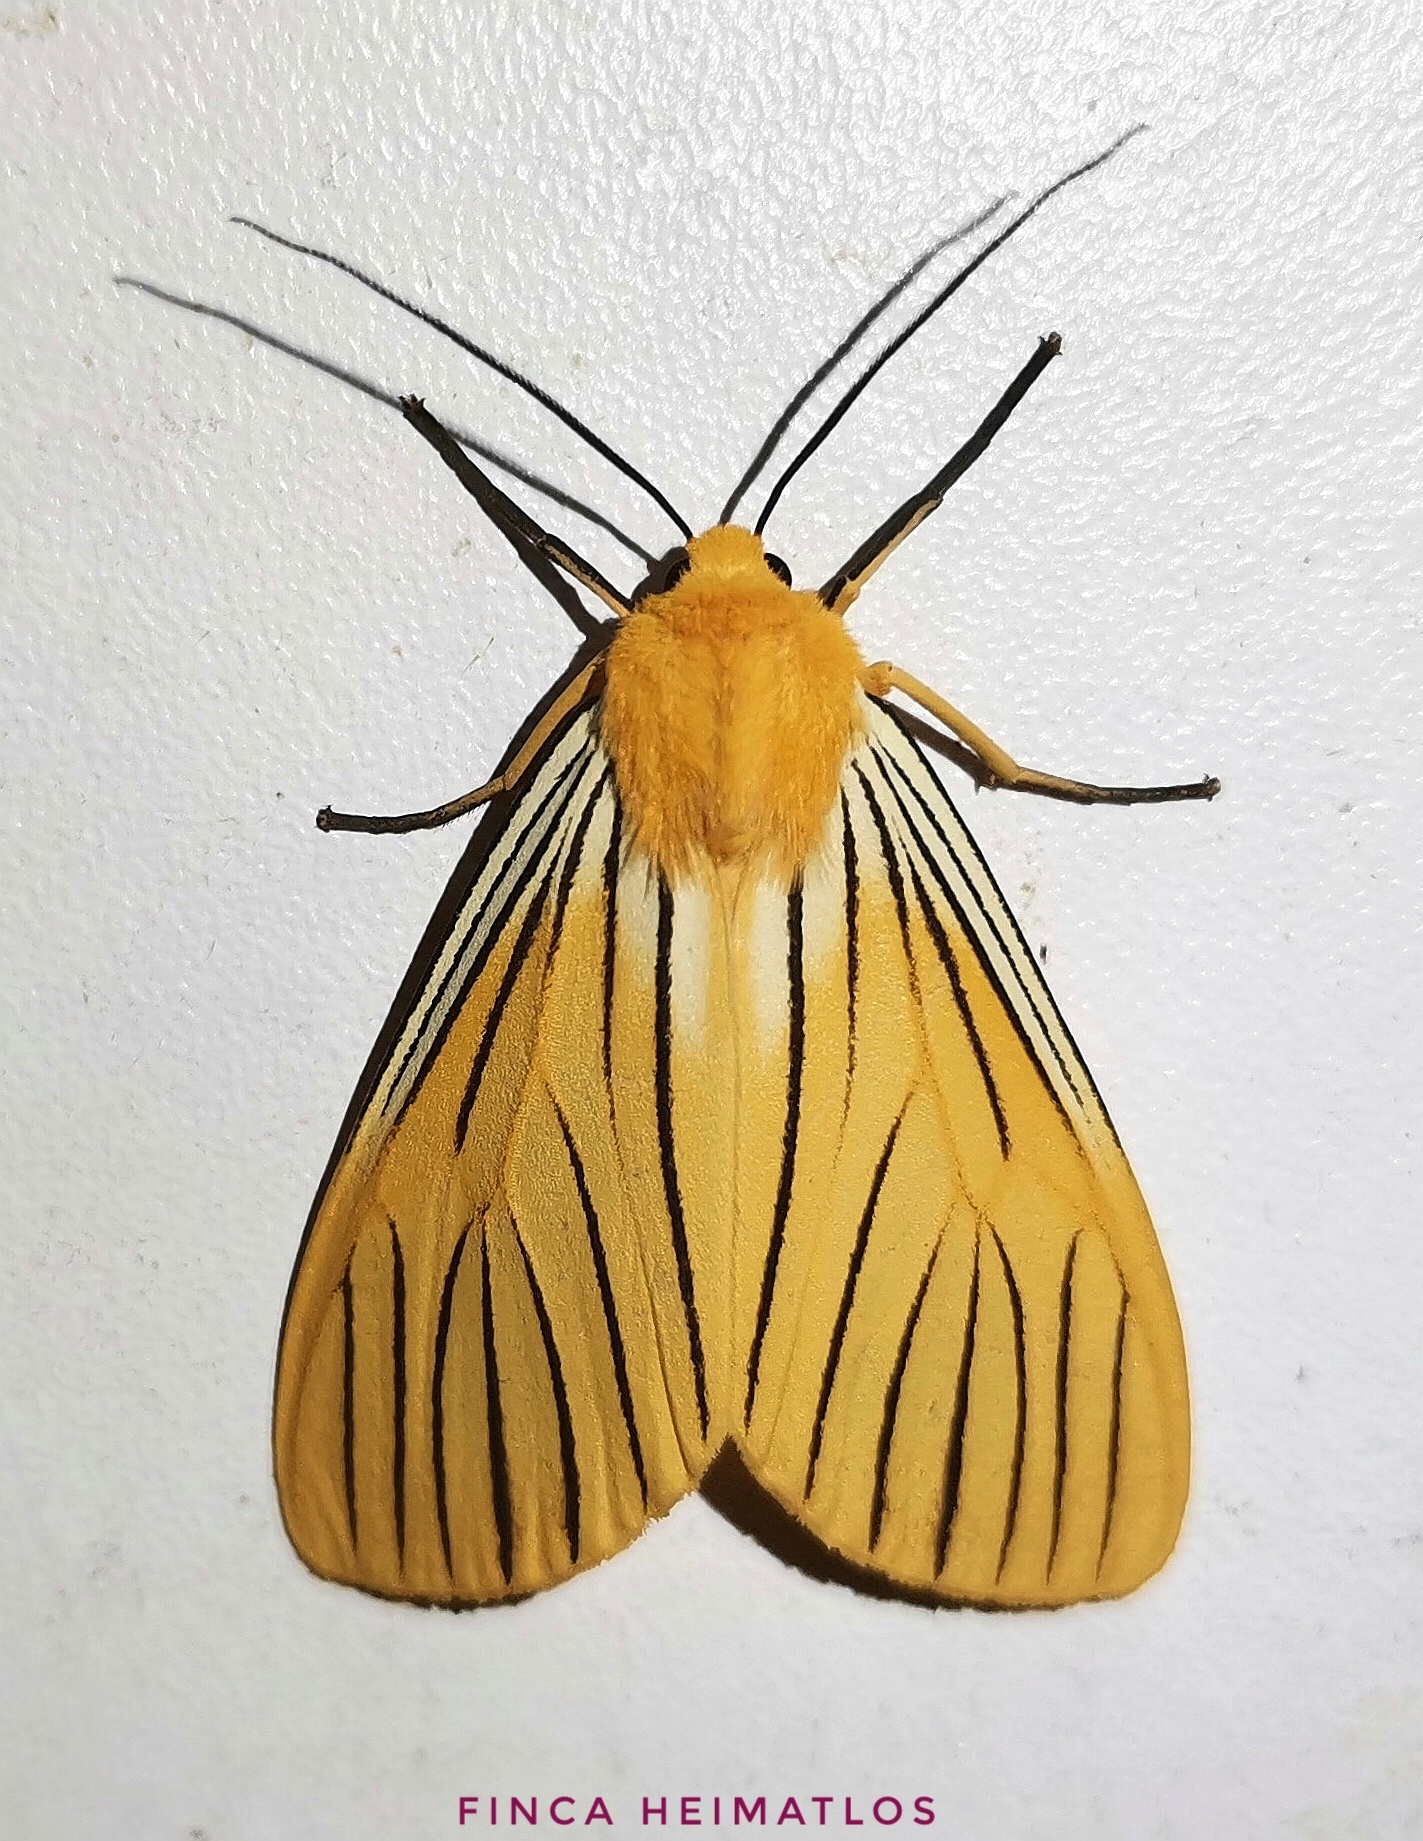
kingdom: Animalia
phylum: Arthropoda
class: Insecta
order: Lepidoptera
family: Erebidae
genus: Pseudischnocampa
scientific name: Pseudischnocampa
